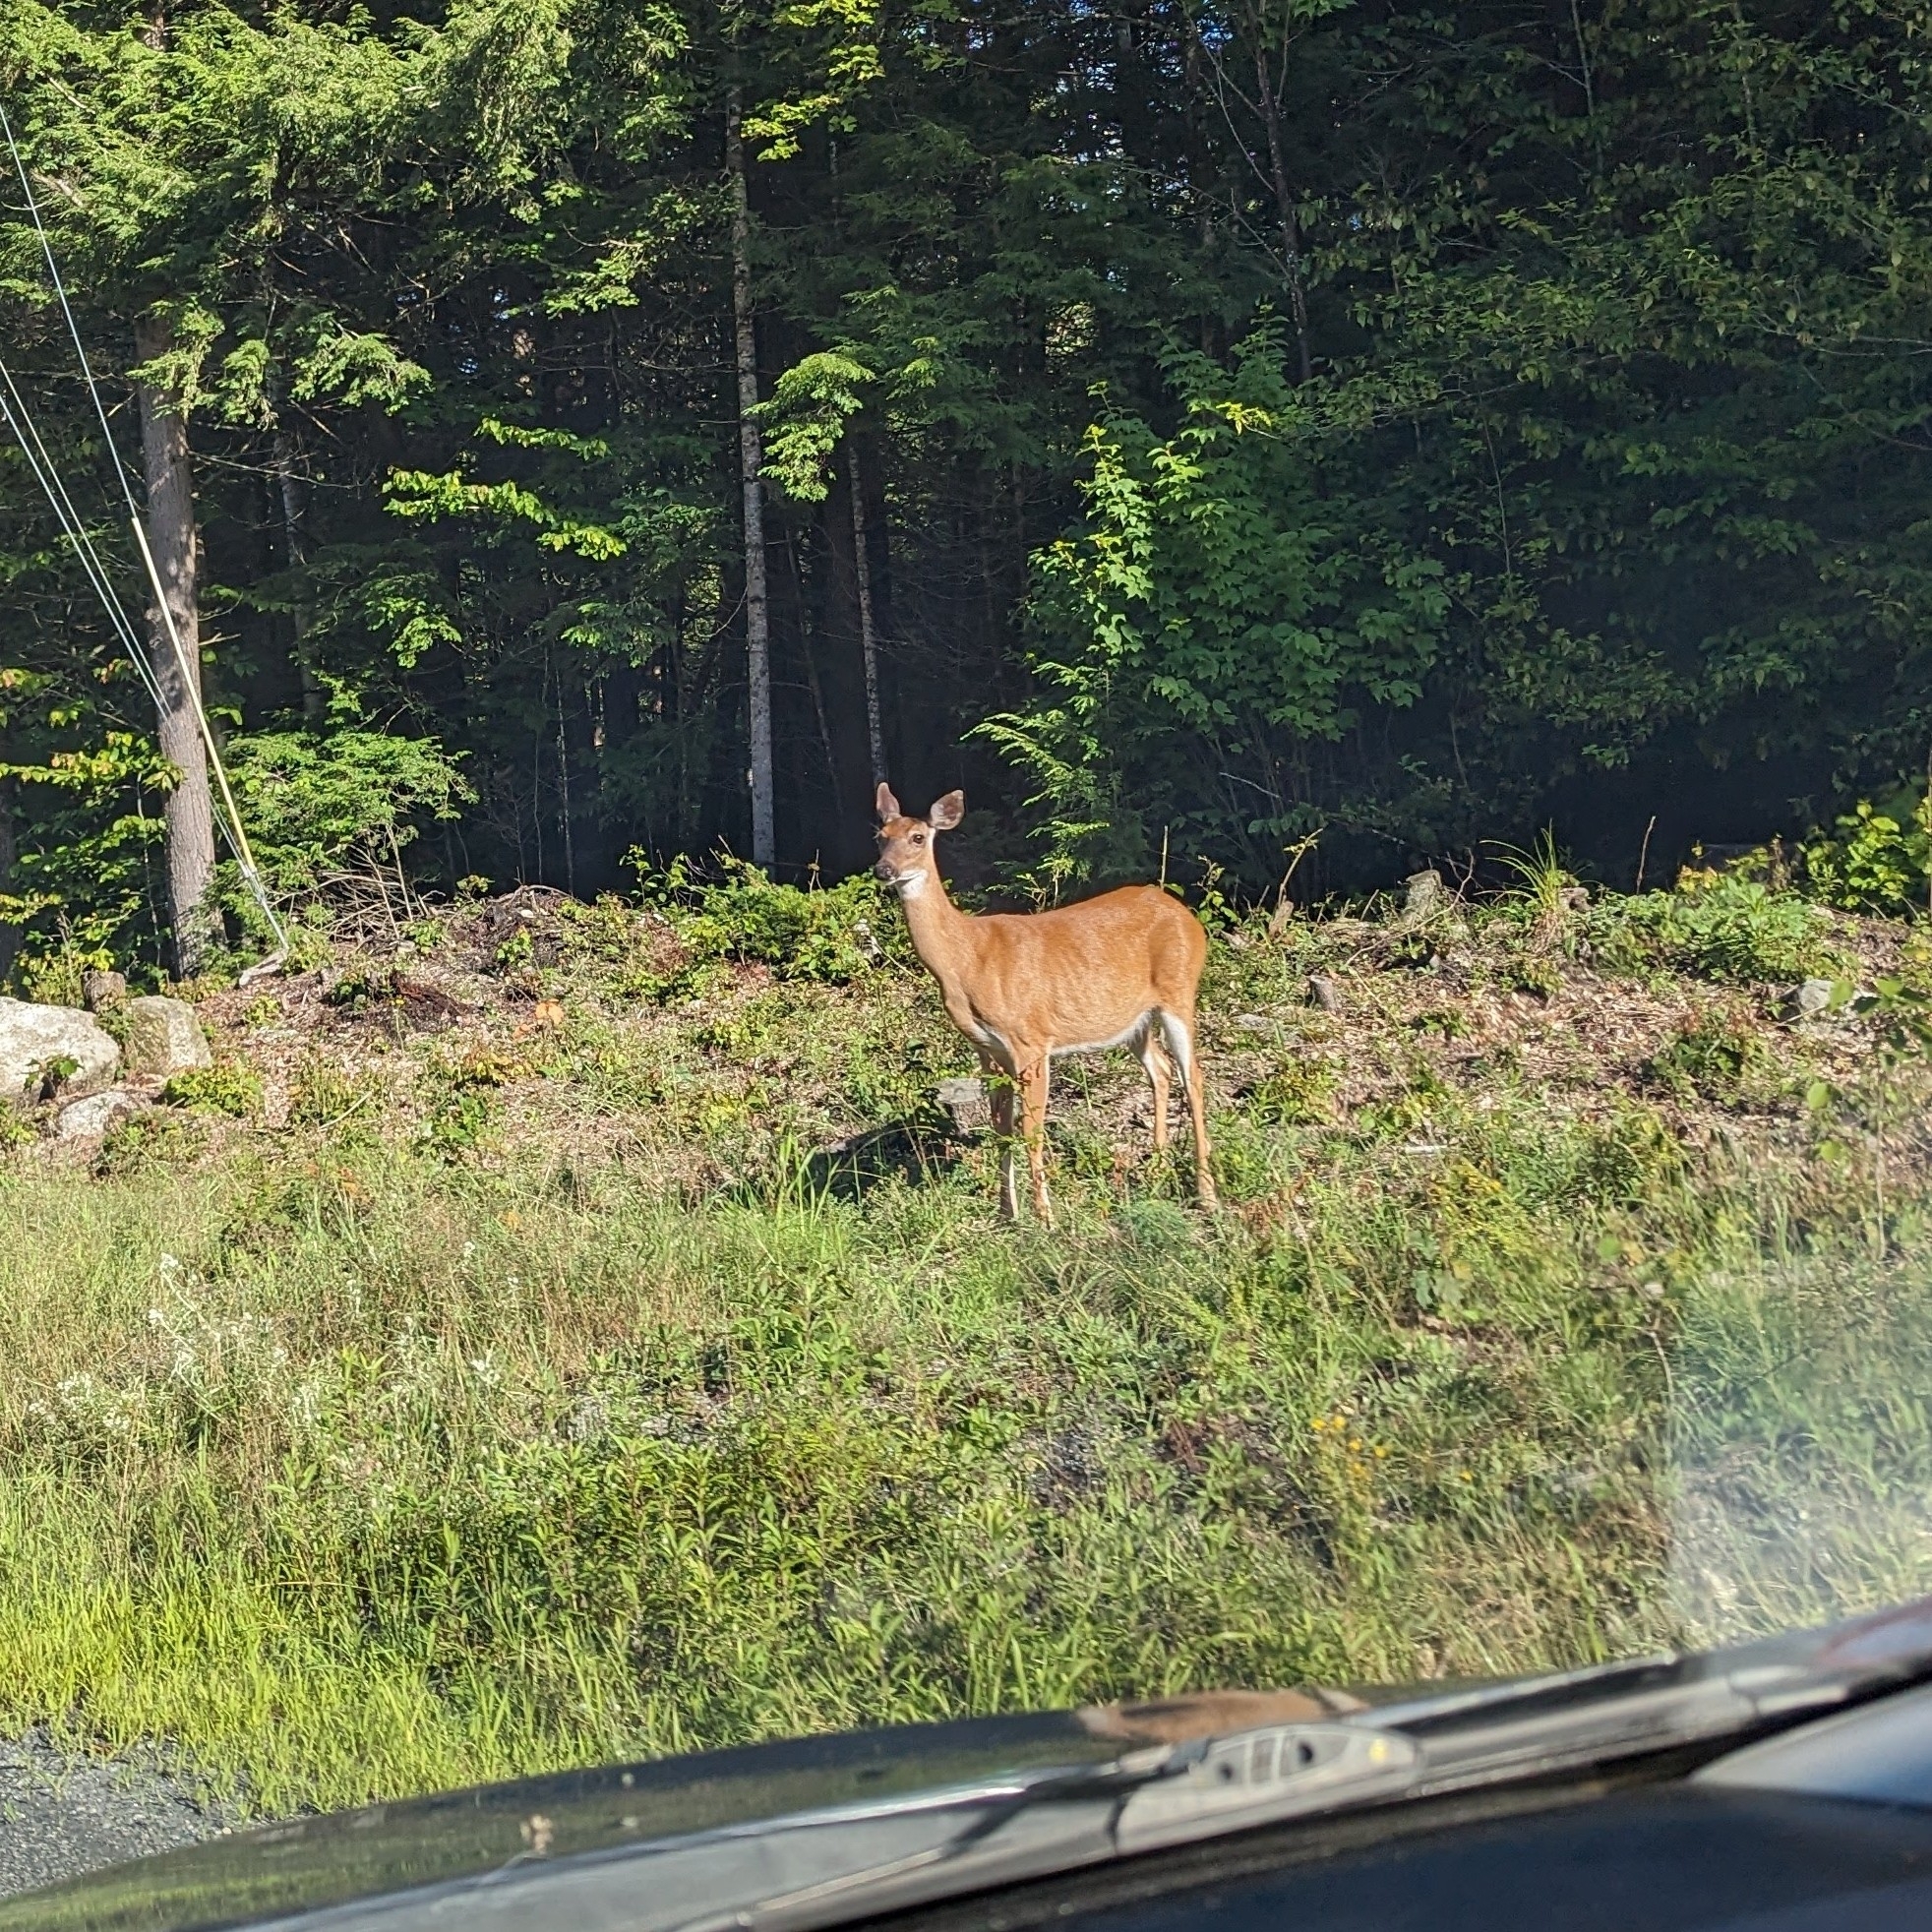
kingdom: Animalia
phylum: Chordata
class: Mammalia
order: Artiodactyla
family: Cervidae
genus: Odocoileus
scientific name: Odocoileus virginianus
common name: White-tailed deer
